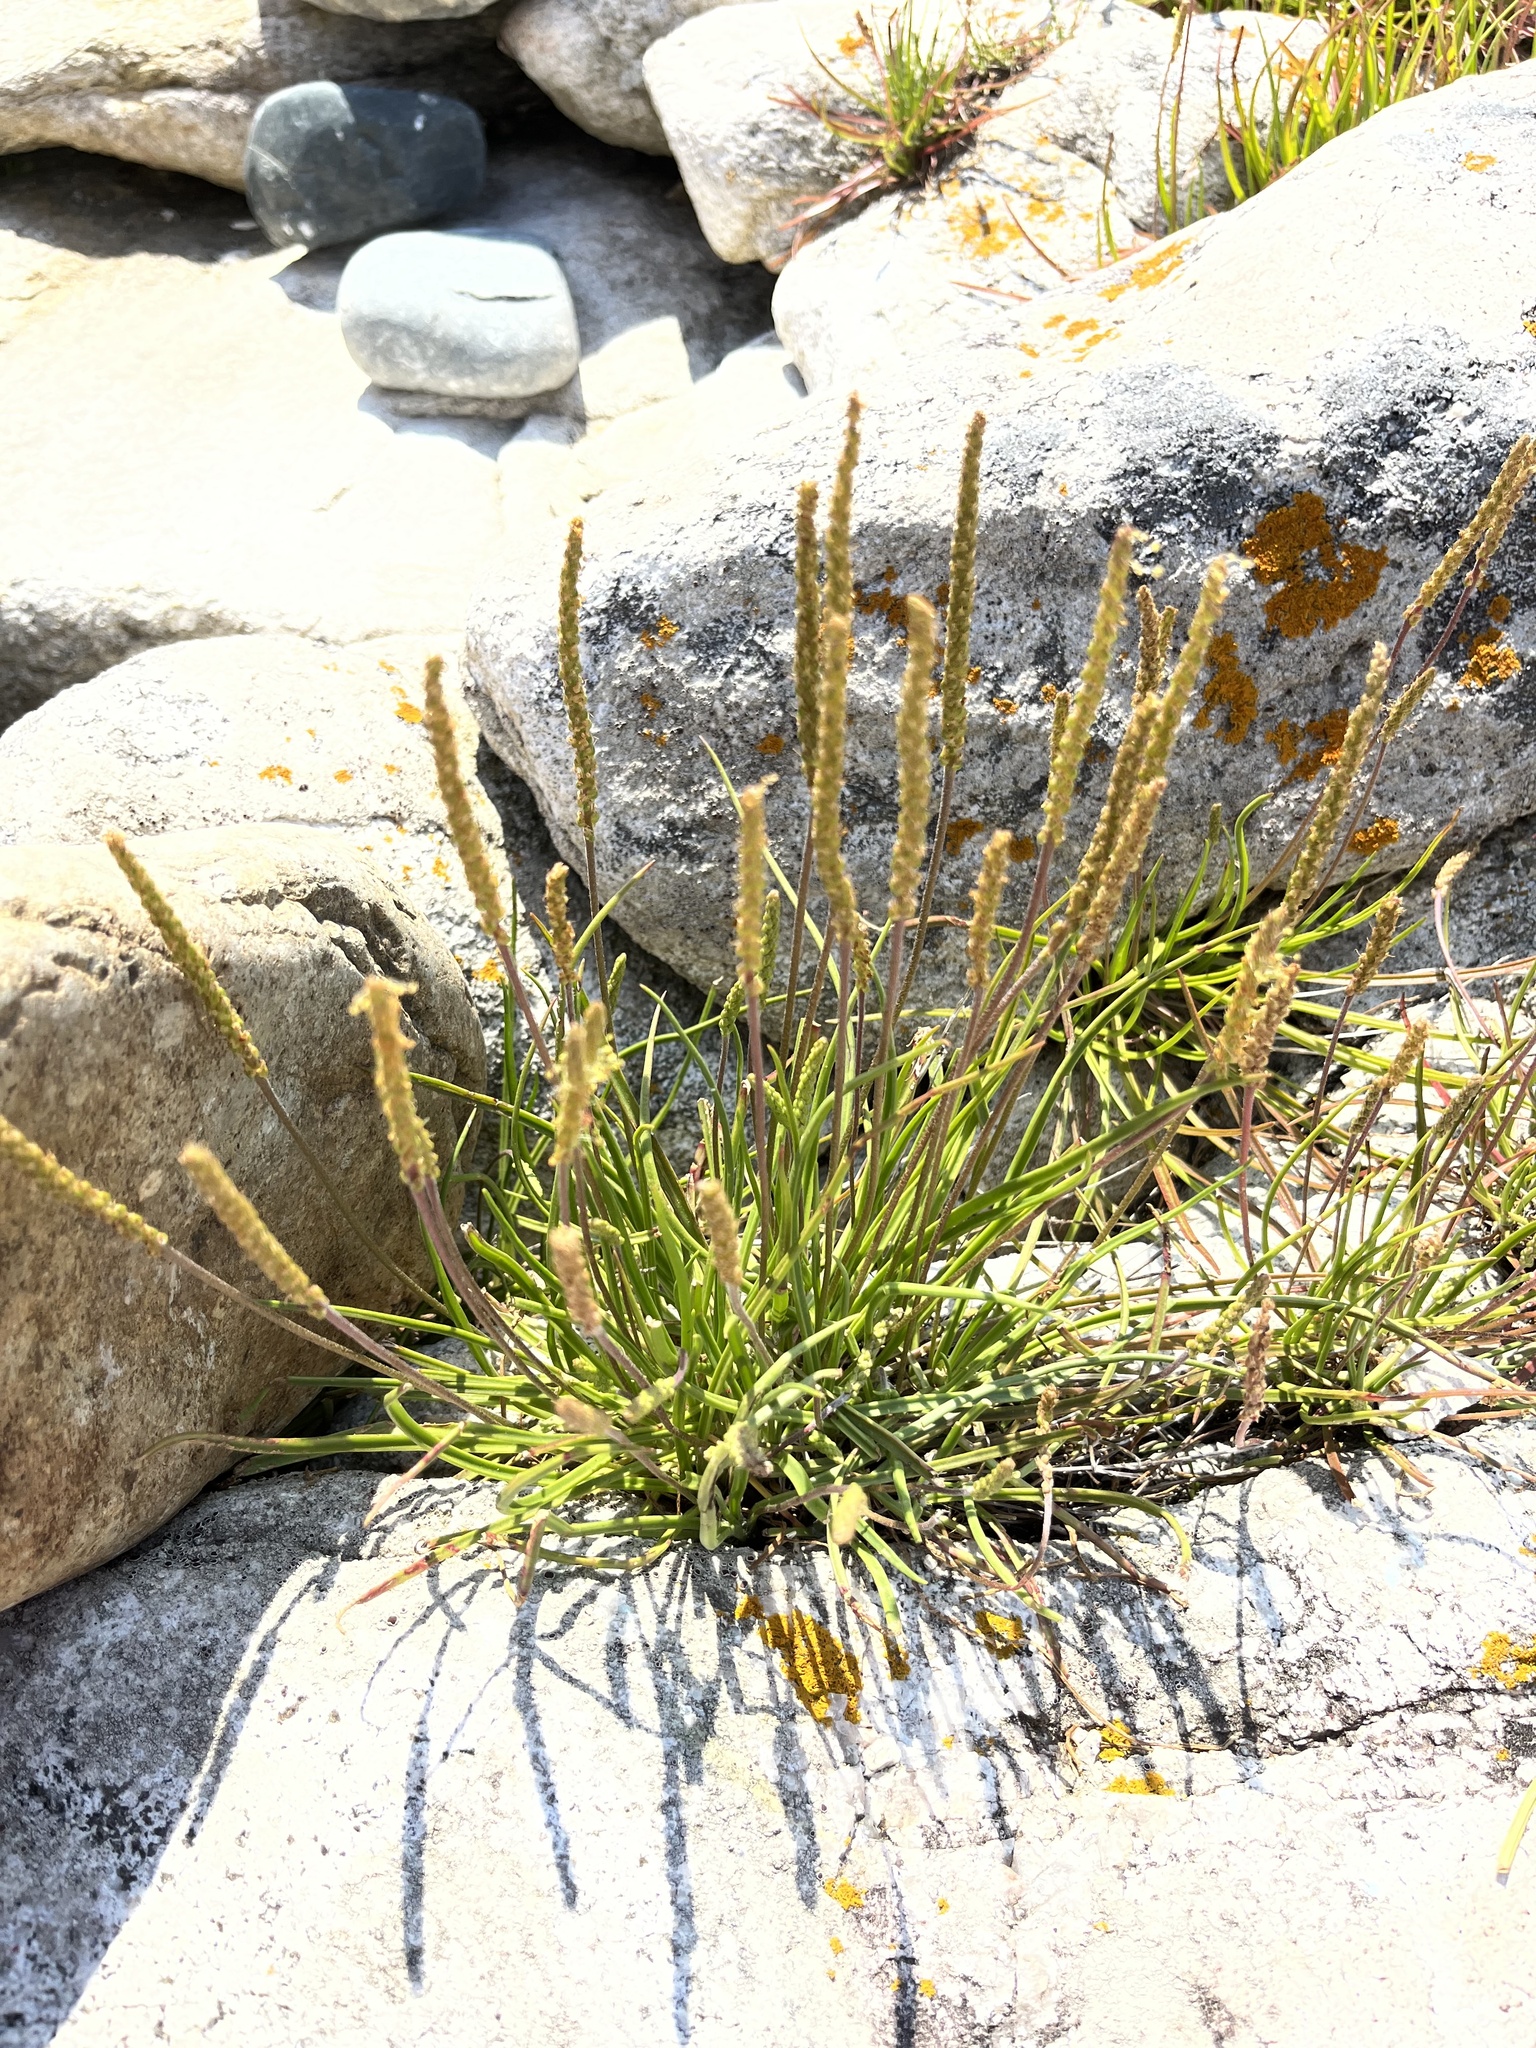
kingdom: Plantae
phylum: Tracheophyta
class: Magnoliopsida
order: Lamiales
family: Plantaginaceae
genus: Plantago
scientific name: Plantago maritima
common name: Sea plantain
